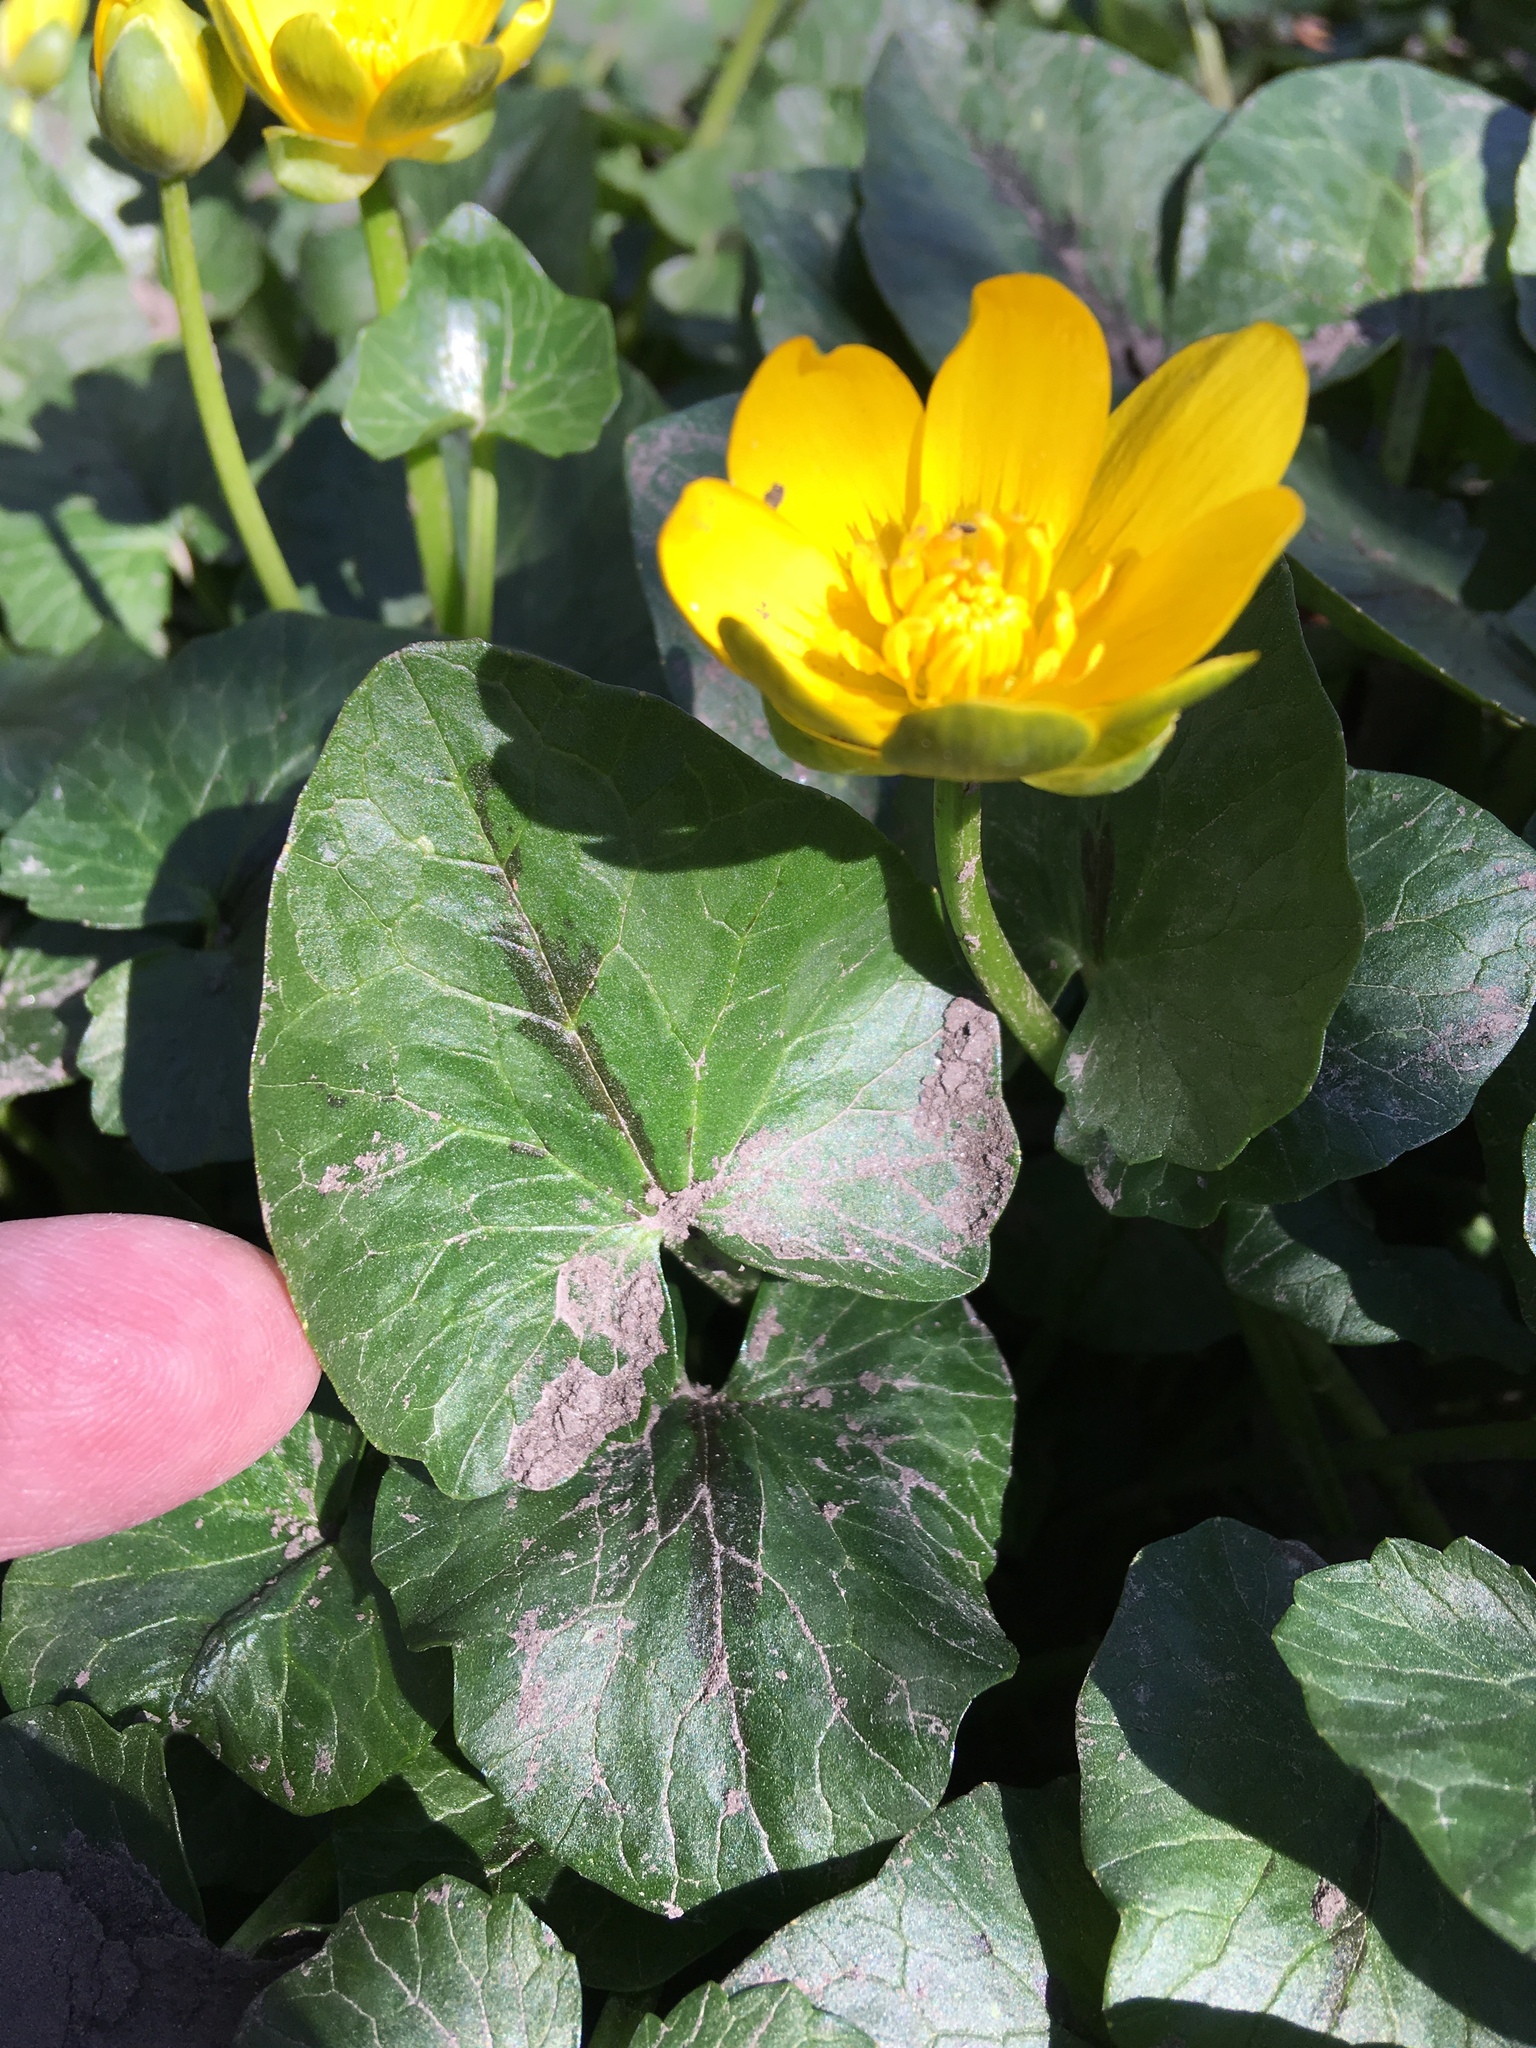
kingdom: Plantae
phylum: Tracheophyta
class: Magnoliopsida
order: Ranunculales
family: Ranunculaceae
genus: Ficaria
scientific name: Ficaria verna
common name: Lesser celandine
